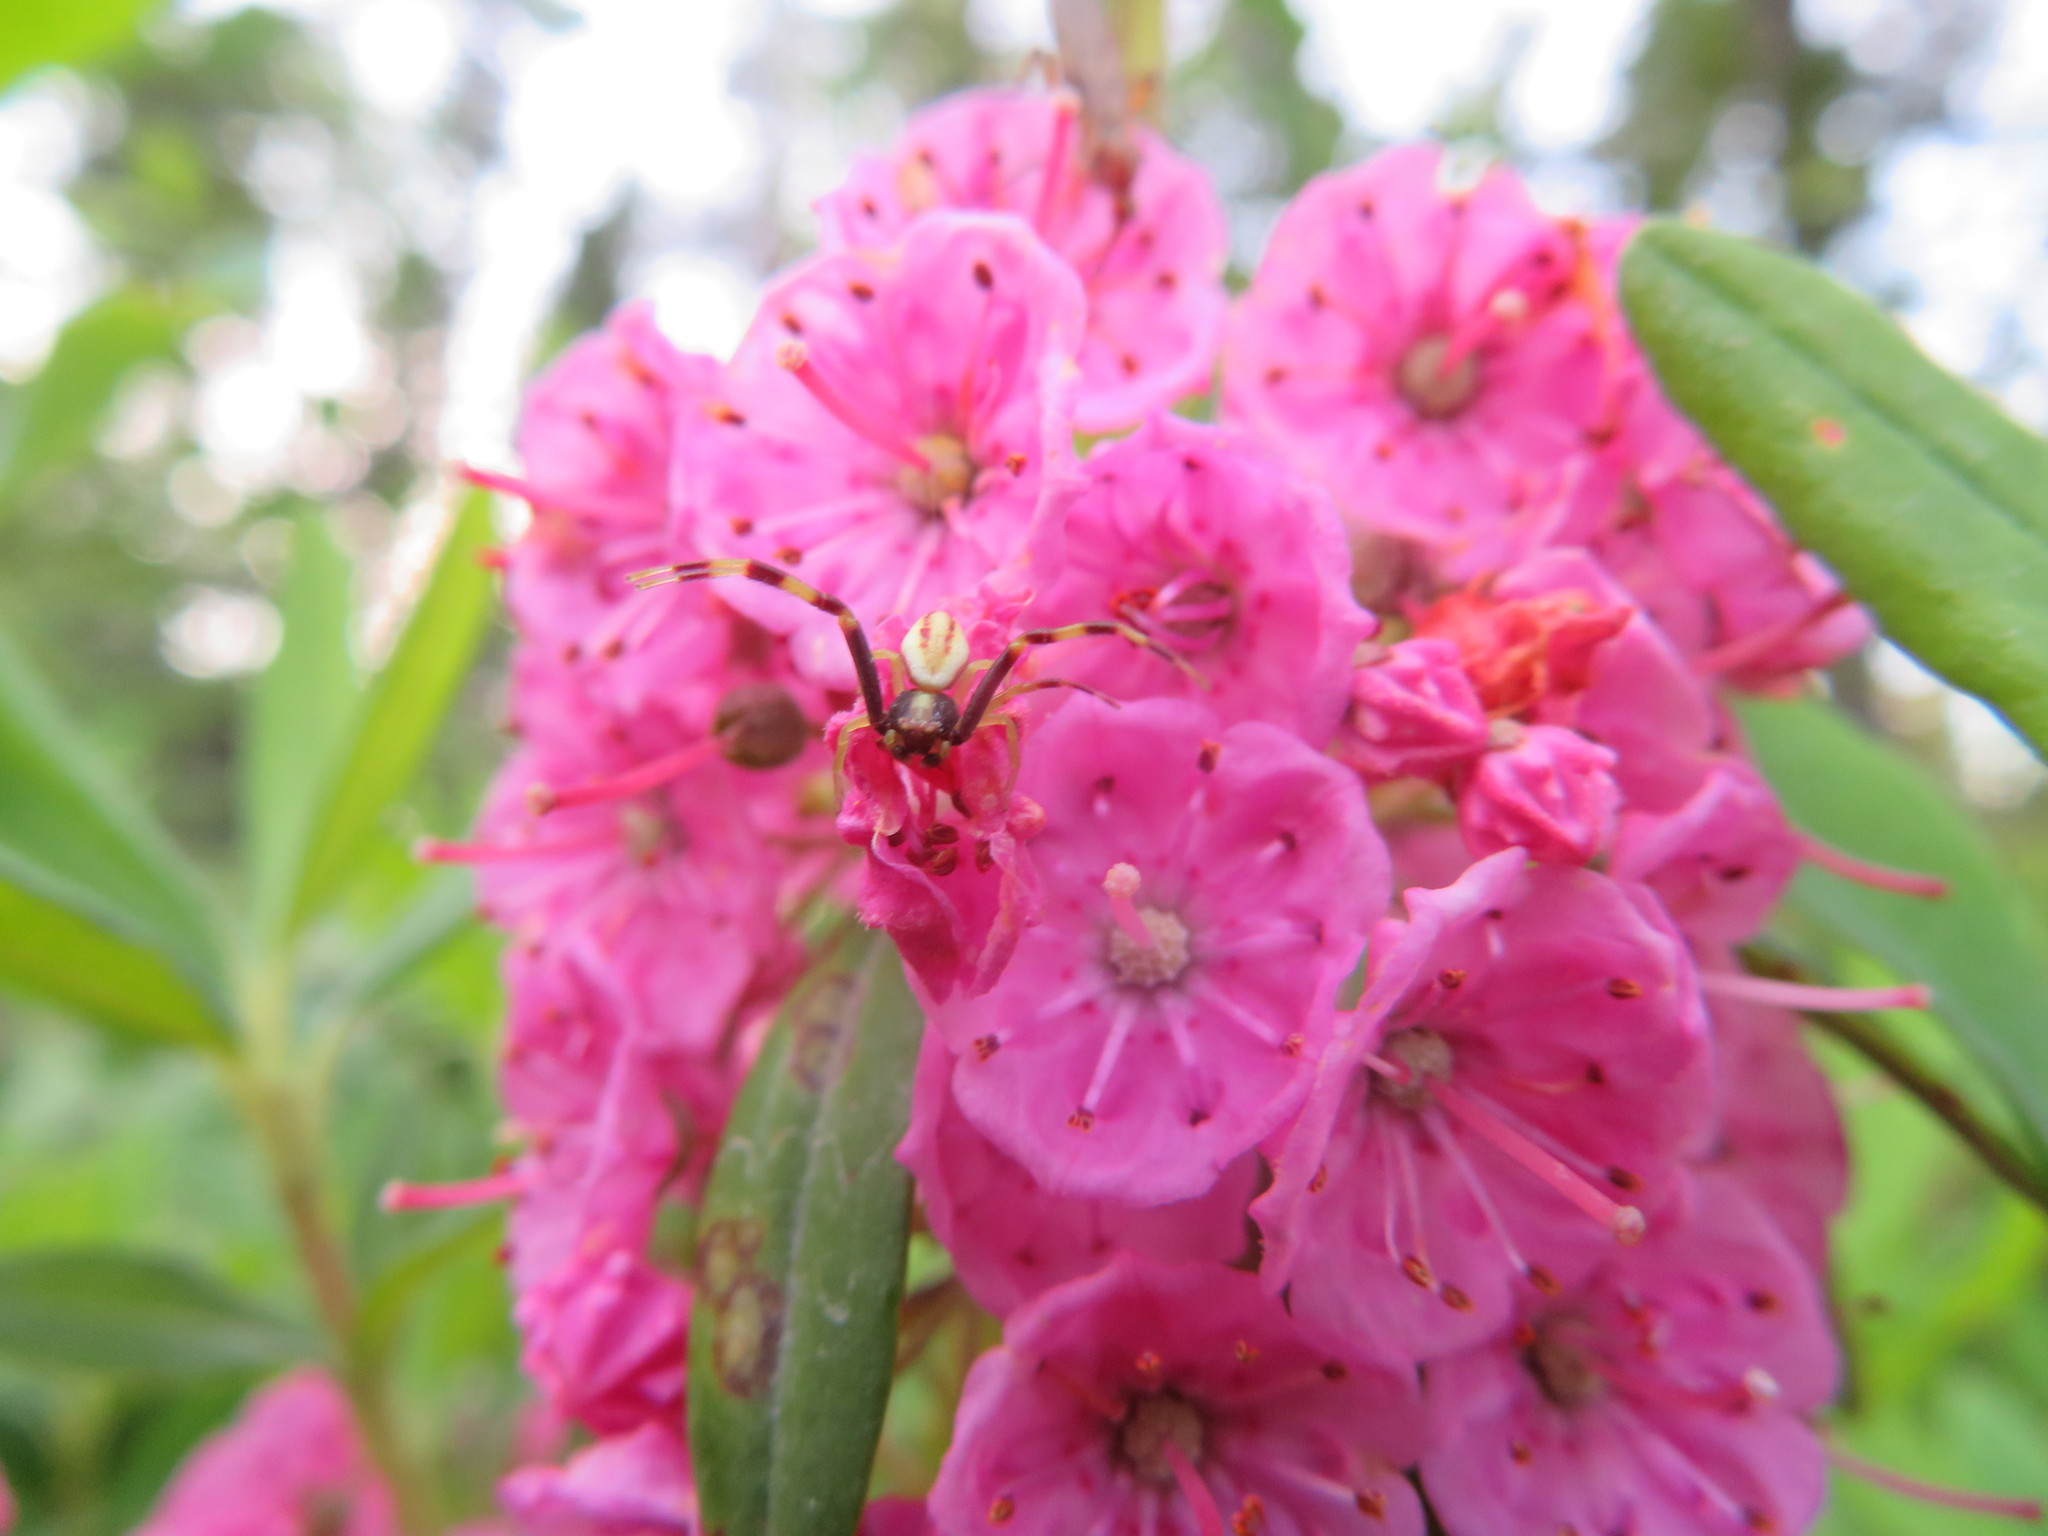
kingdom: Animalia
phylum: Arthropoda
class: Arachnida
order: Araneae
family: Thomisidae
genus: Misumena
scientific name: Misumena vatia
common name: Goldenrod crab spider
